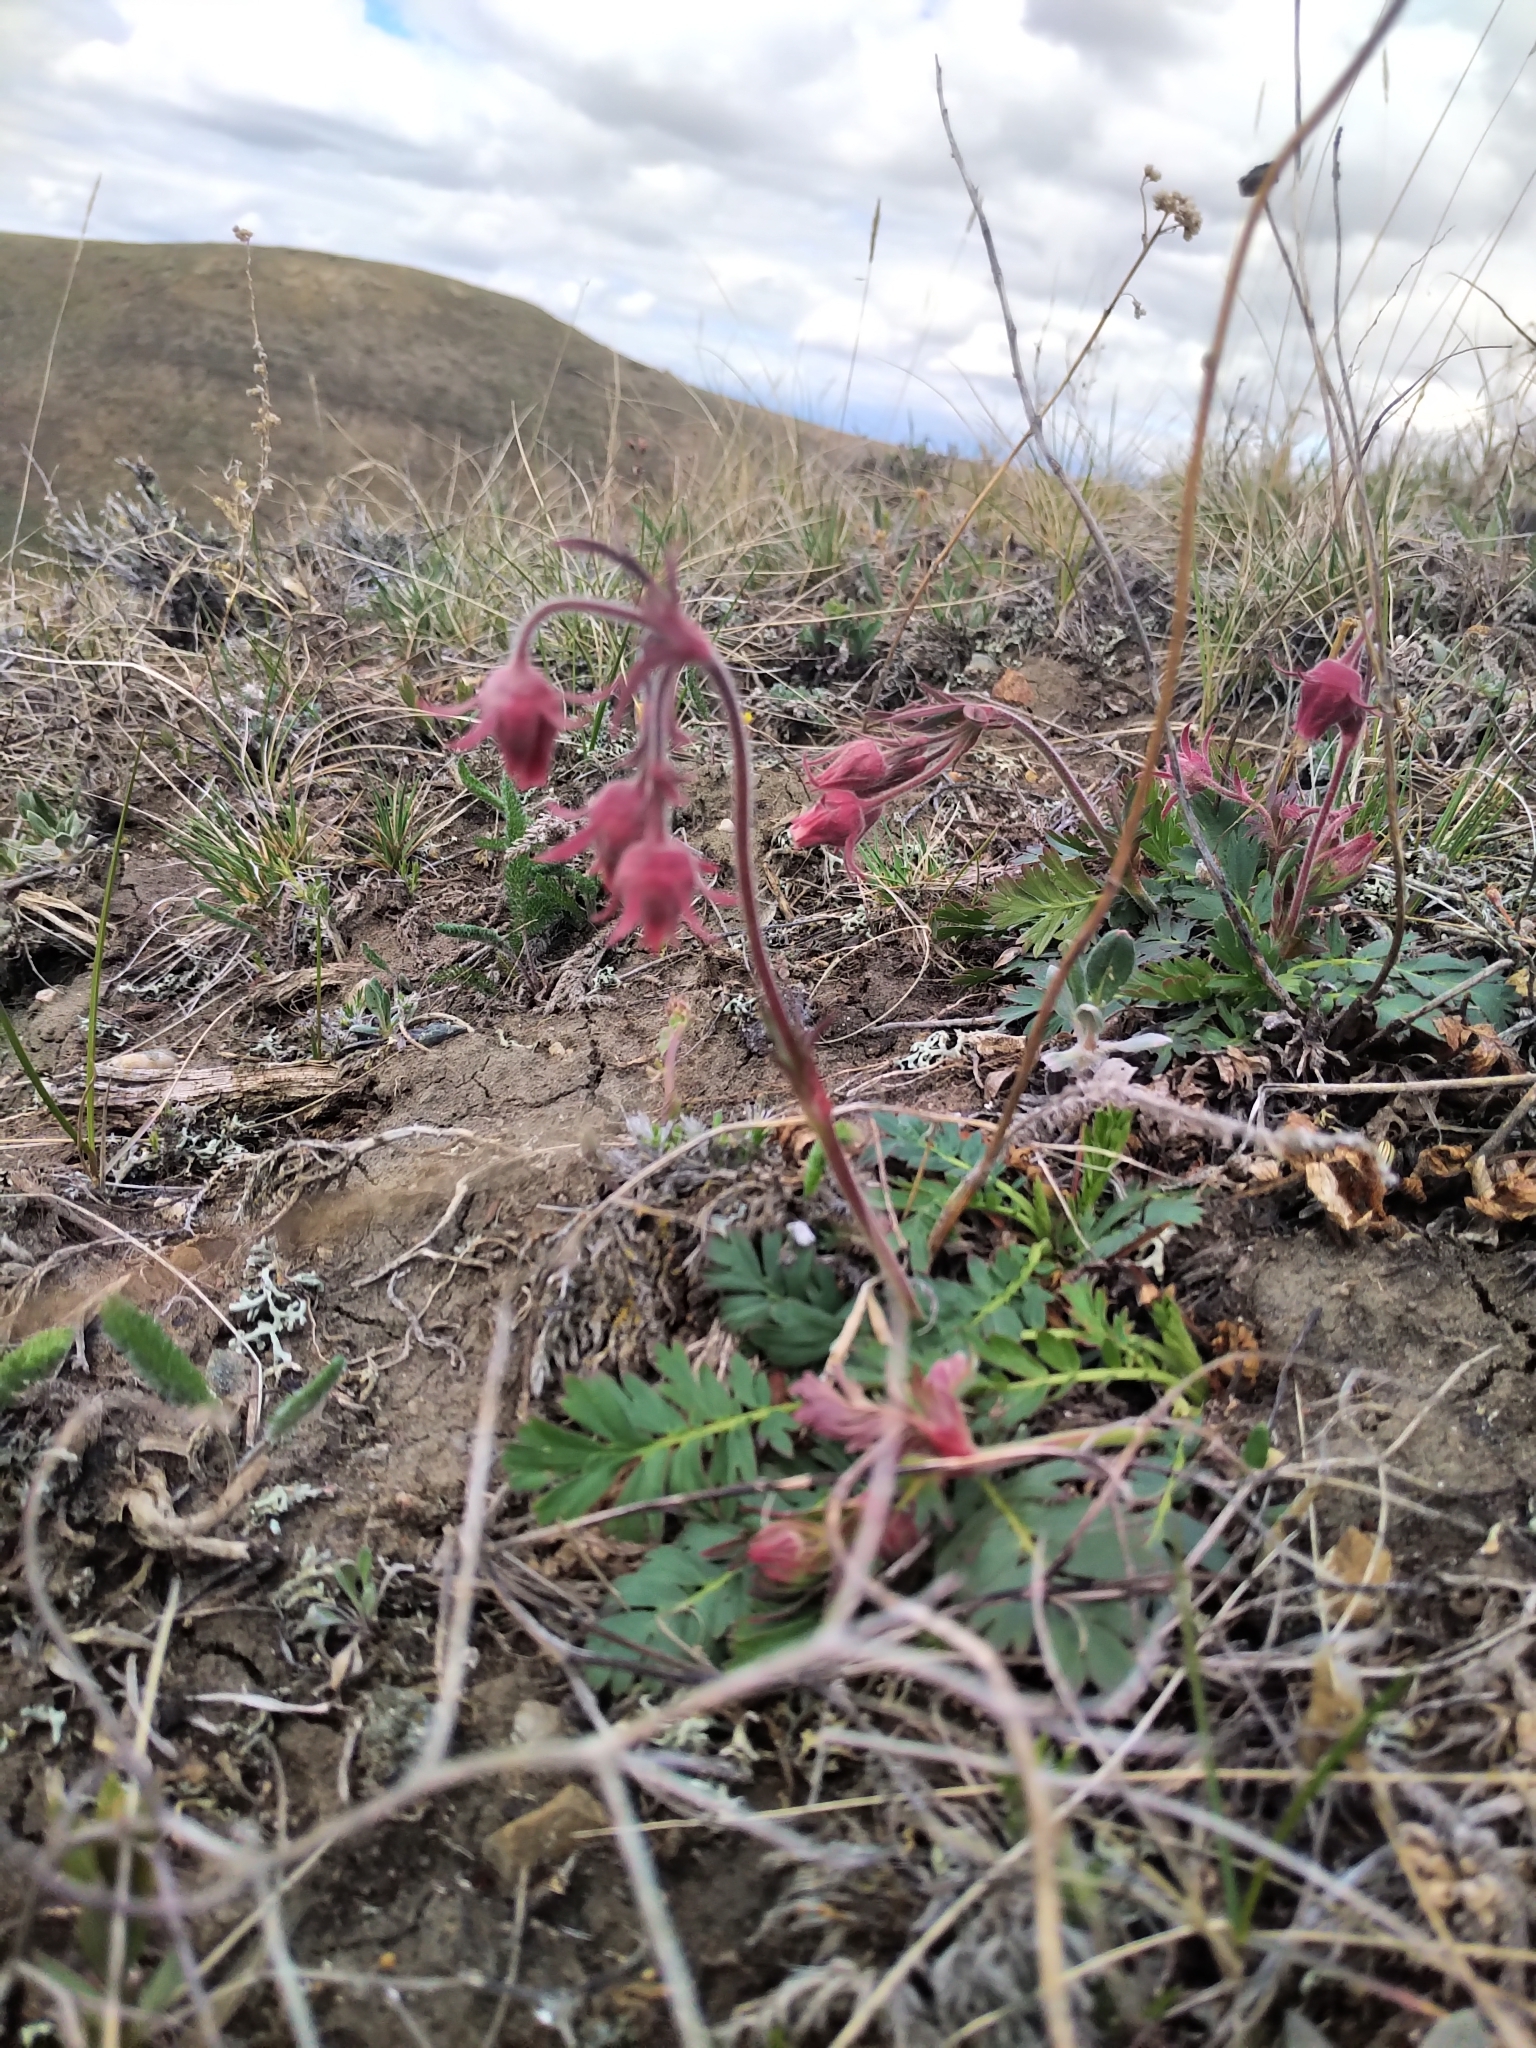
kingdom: Plantae
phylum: Tracheophyta
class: Magnoliopsida
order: Rosales
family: Rosaceae
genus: Geum
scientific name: Geum triflorum
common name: Old man's whiskers
